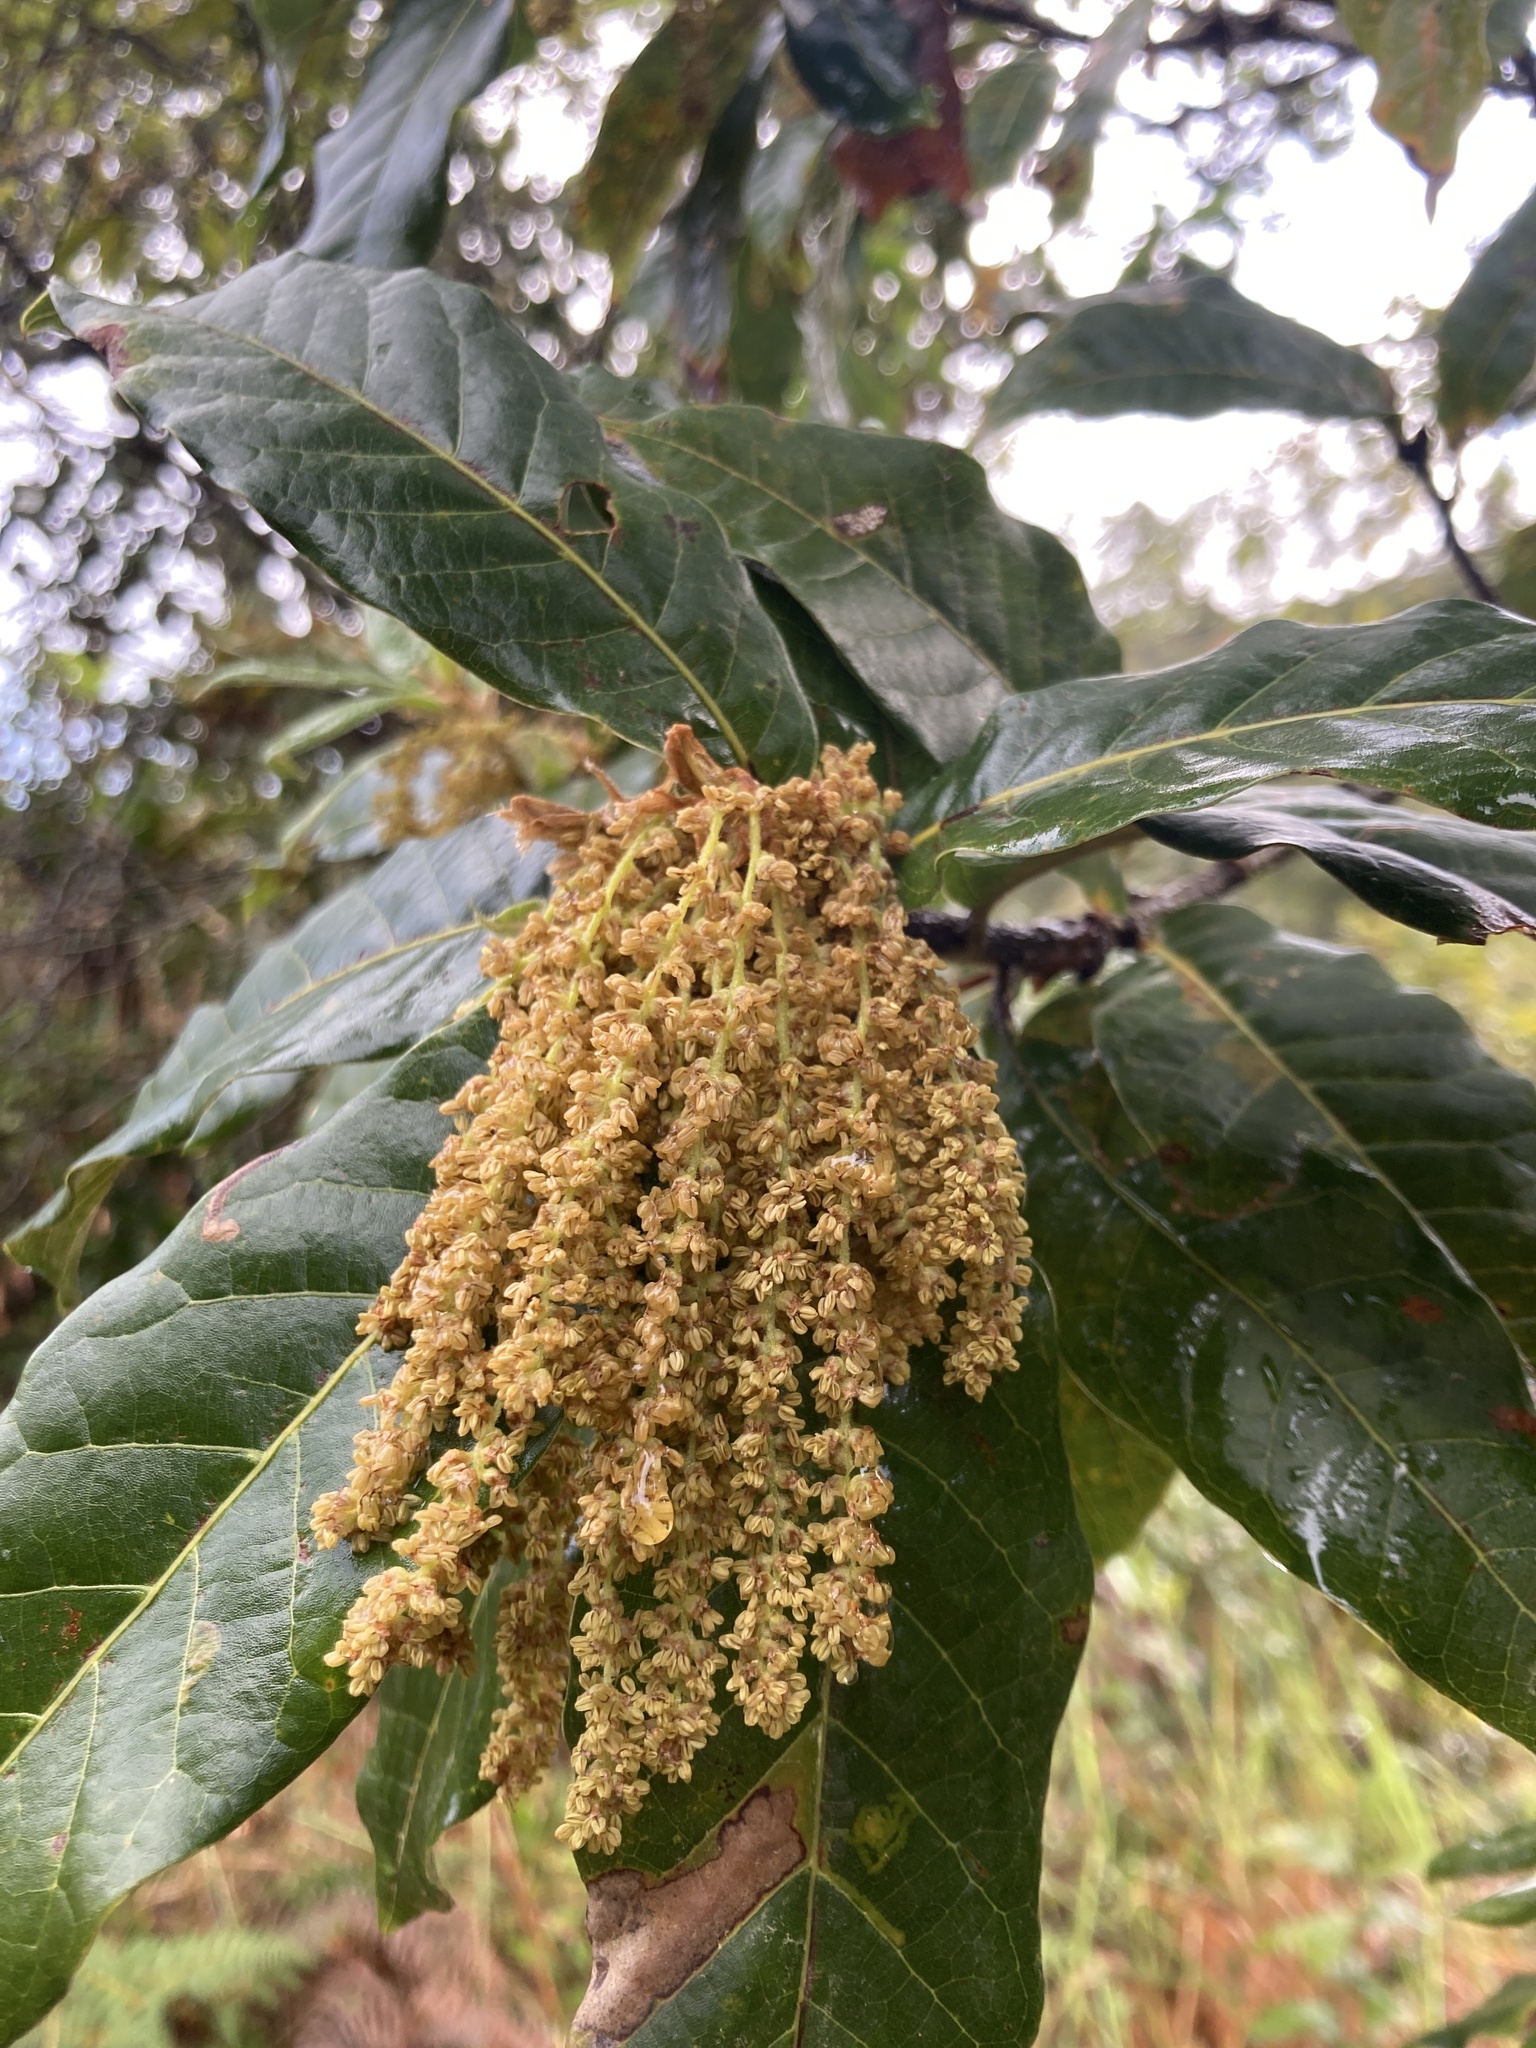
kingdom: Plantae
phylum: Tracheophyta
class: Magnoliopsida
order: Fagales
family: Fagaceae
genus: Quercus
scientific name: Quercus humboldtii
